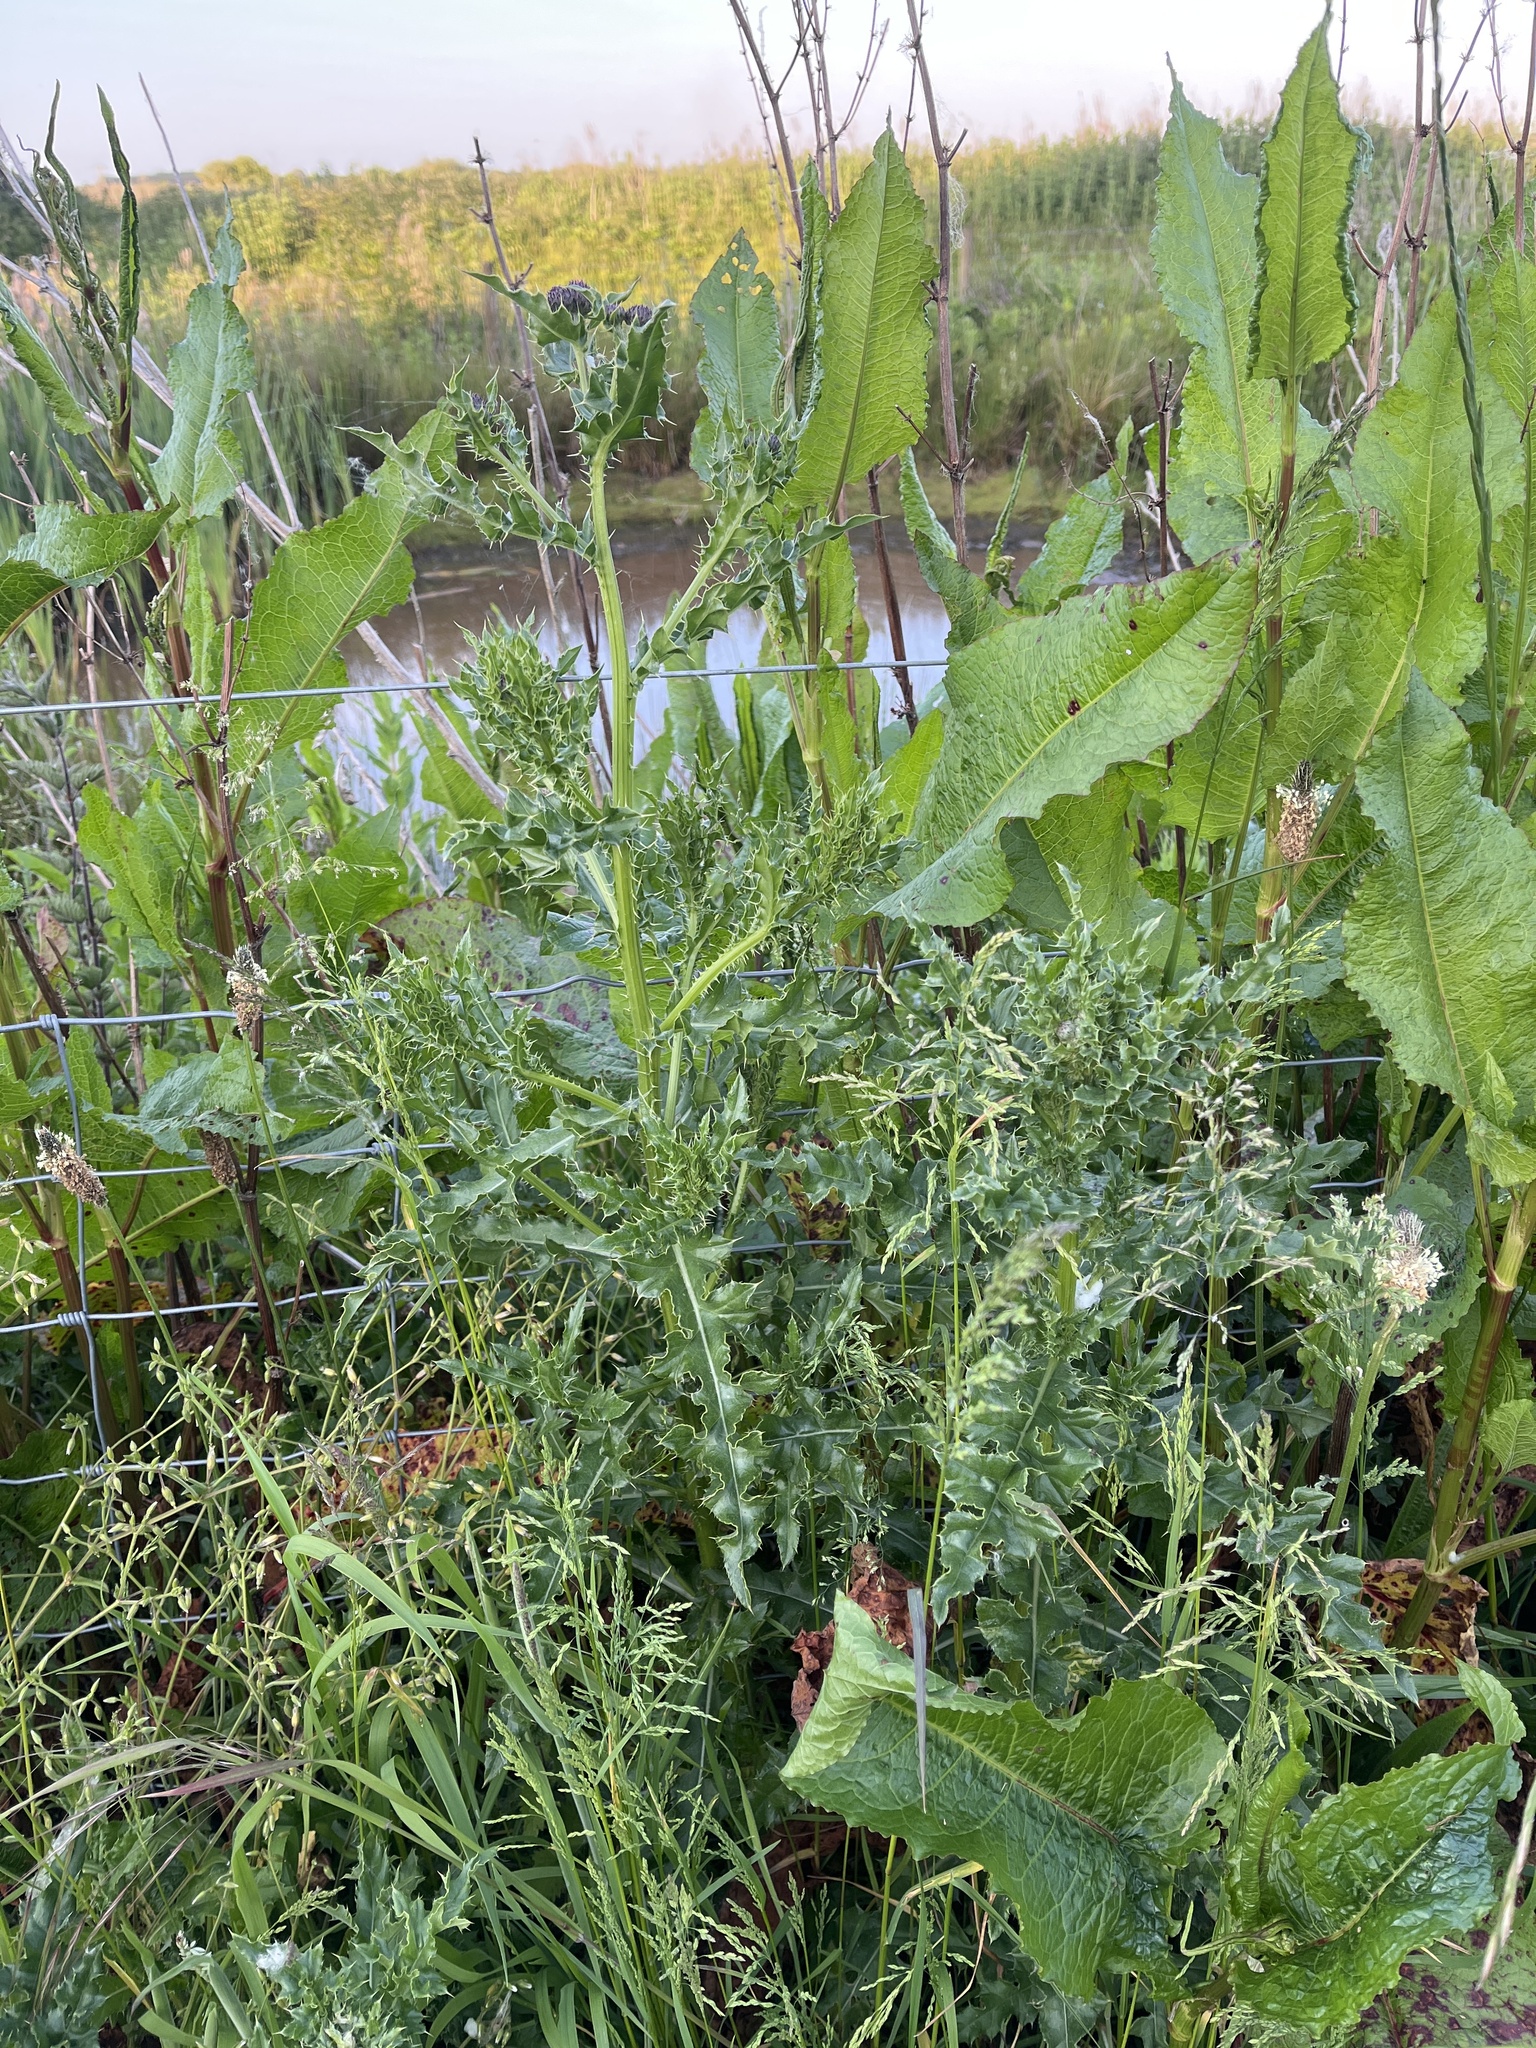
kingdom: Plantae
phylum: Tracheophyta
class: Magnoliopsida
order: Asterales
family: Asteraceae
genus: Cirsium
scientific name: Cirsium arvense
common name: Creeping thistle
